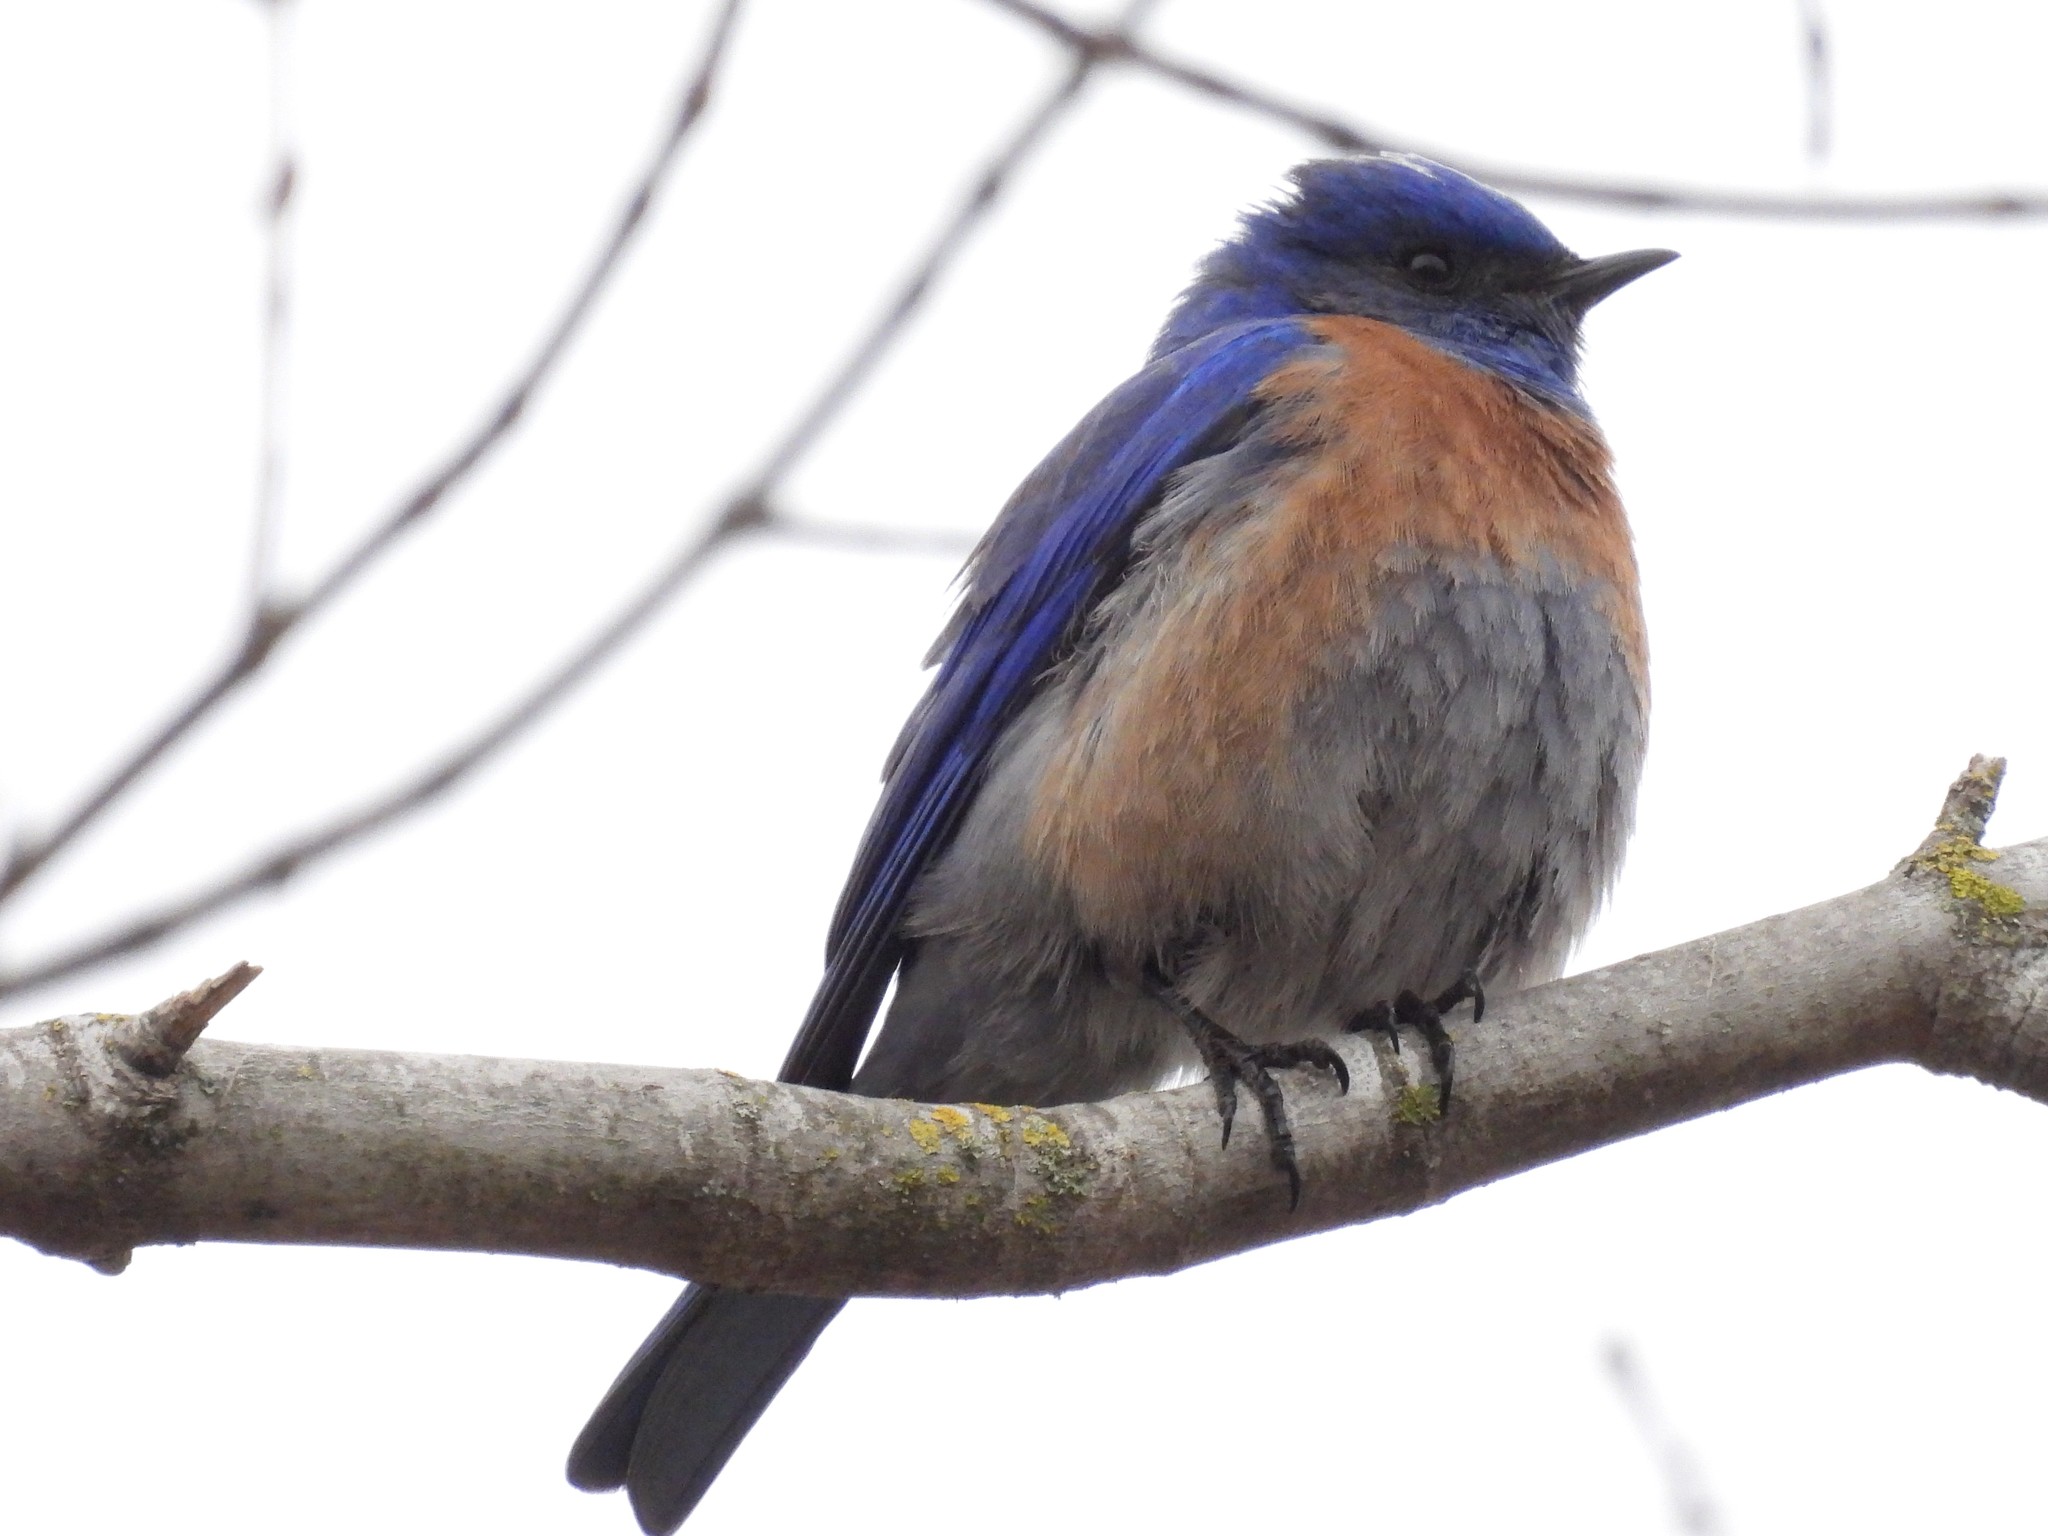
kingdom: Animalia
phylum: Chordata
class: Aves
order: Passeriformes
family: Turdidae
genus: Sialia
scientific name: Sialia mexicana
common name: Western bluebird
